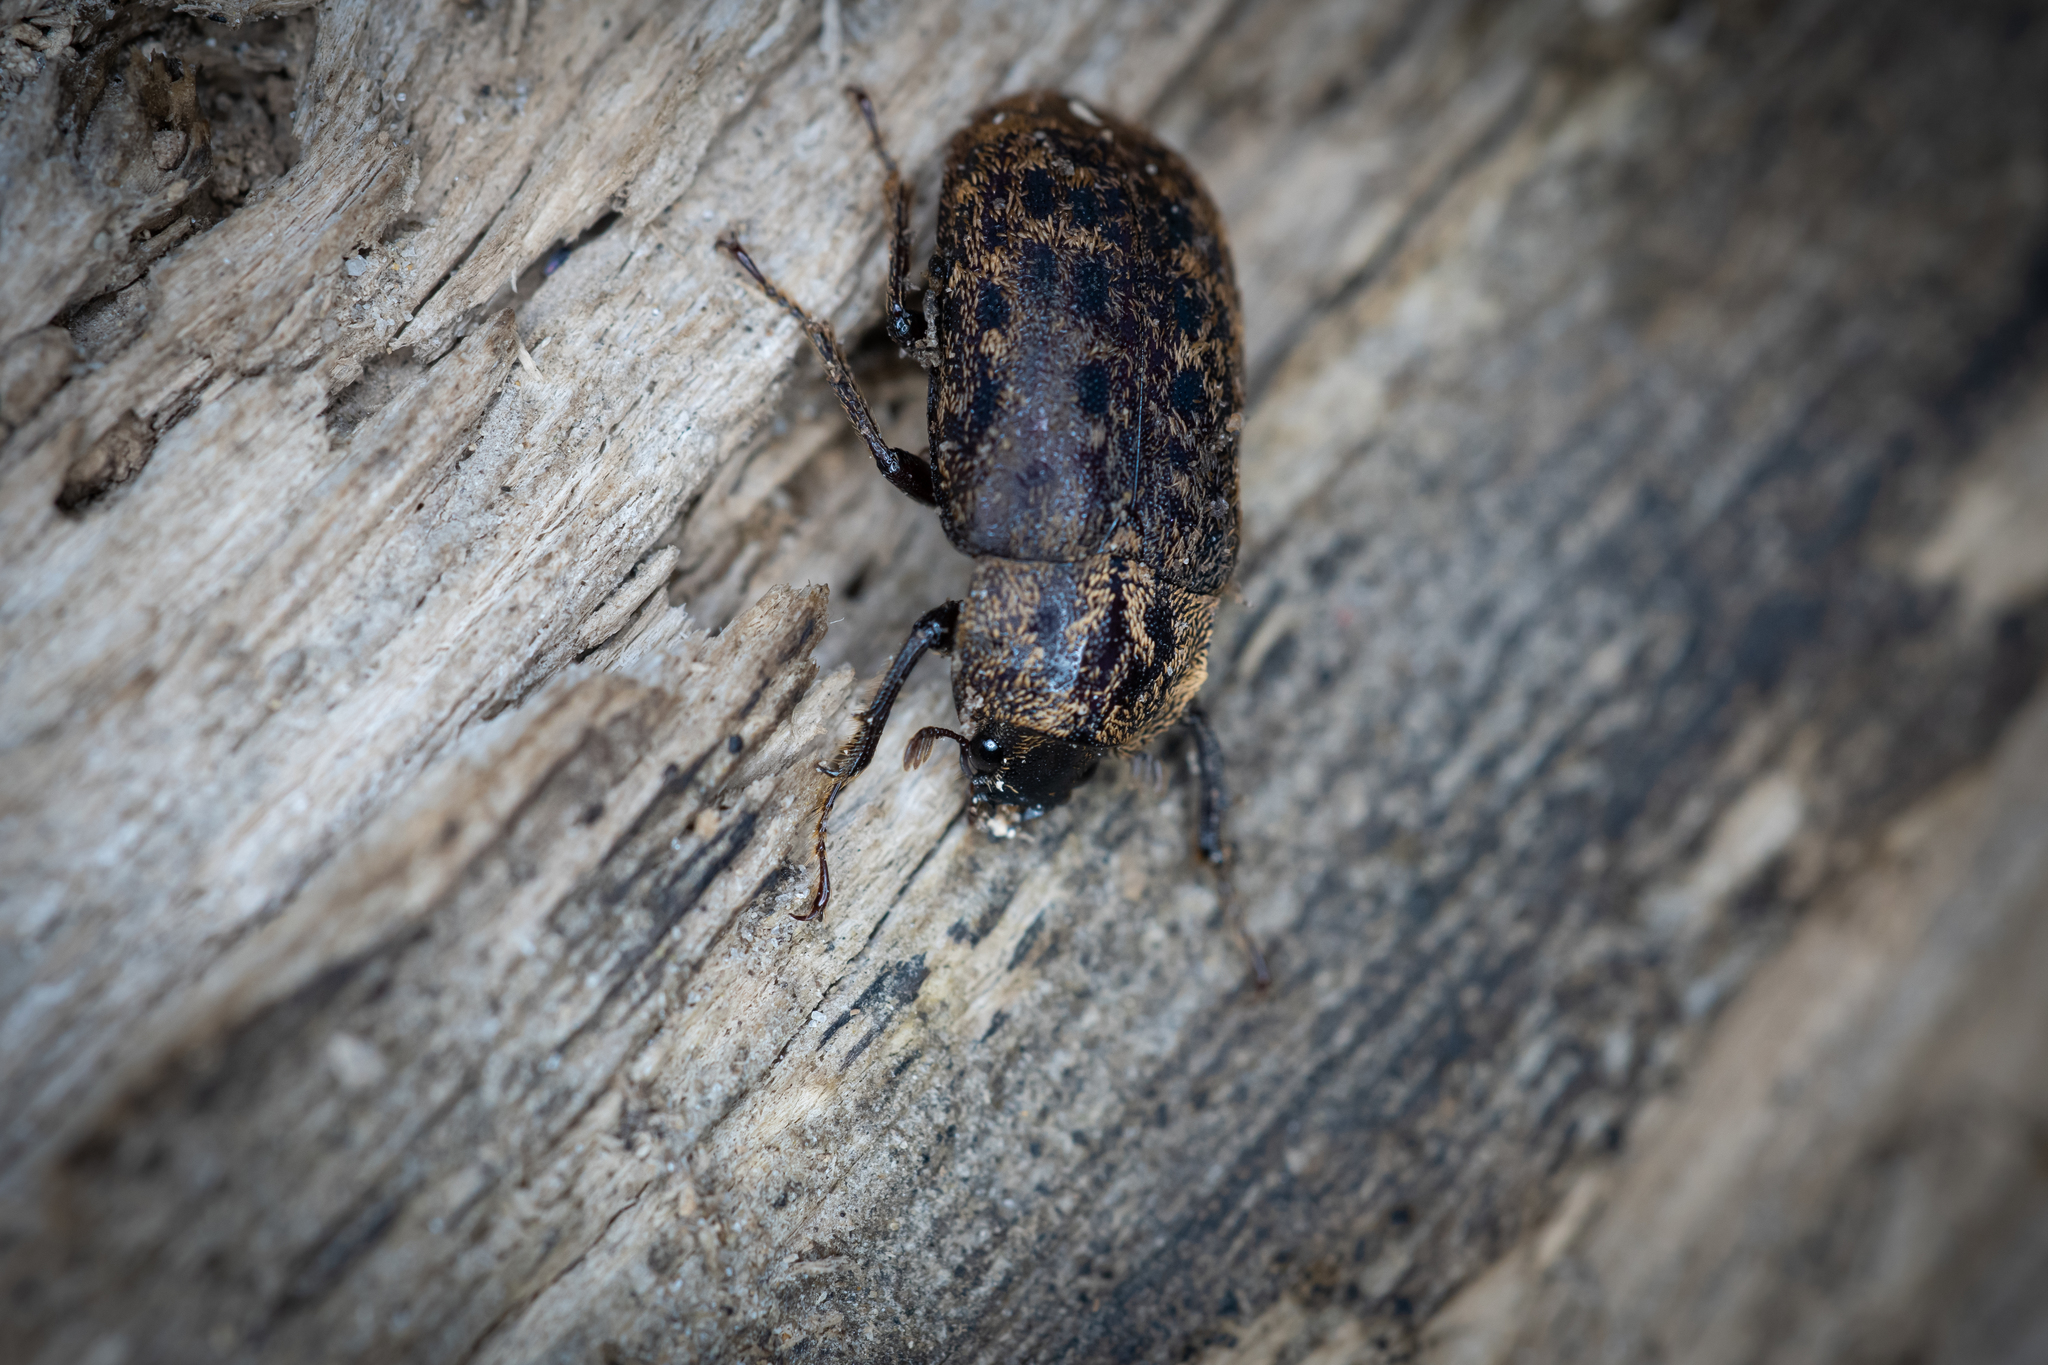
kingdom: Animalia
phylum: Arthropoda
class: Insecta
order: Coleoptera
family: Lucanidae
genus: Mitophyllus
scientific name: Mitophyllus parrianus
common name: Parry's stag beetle
